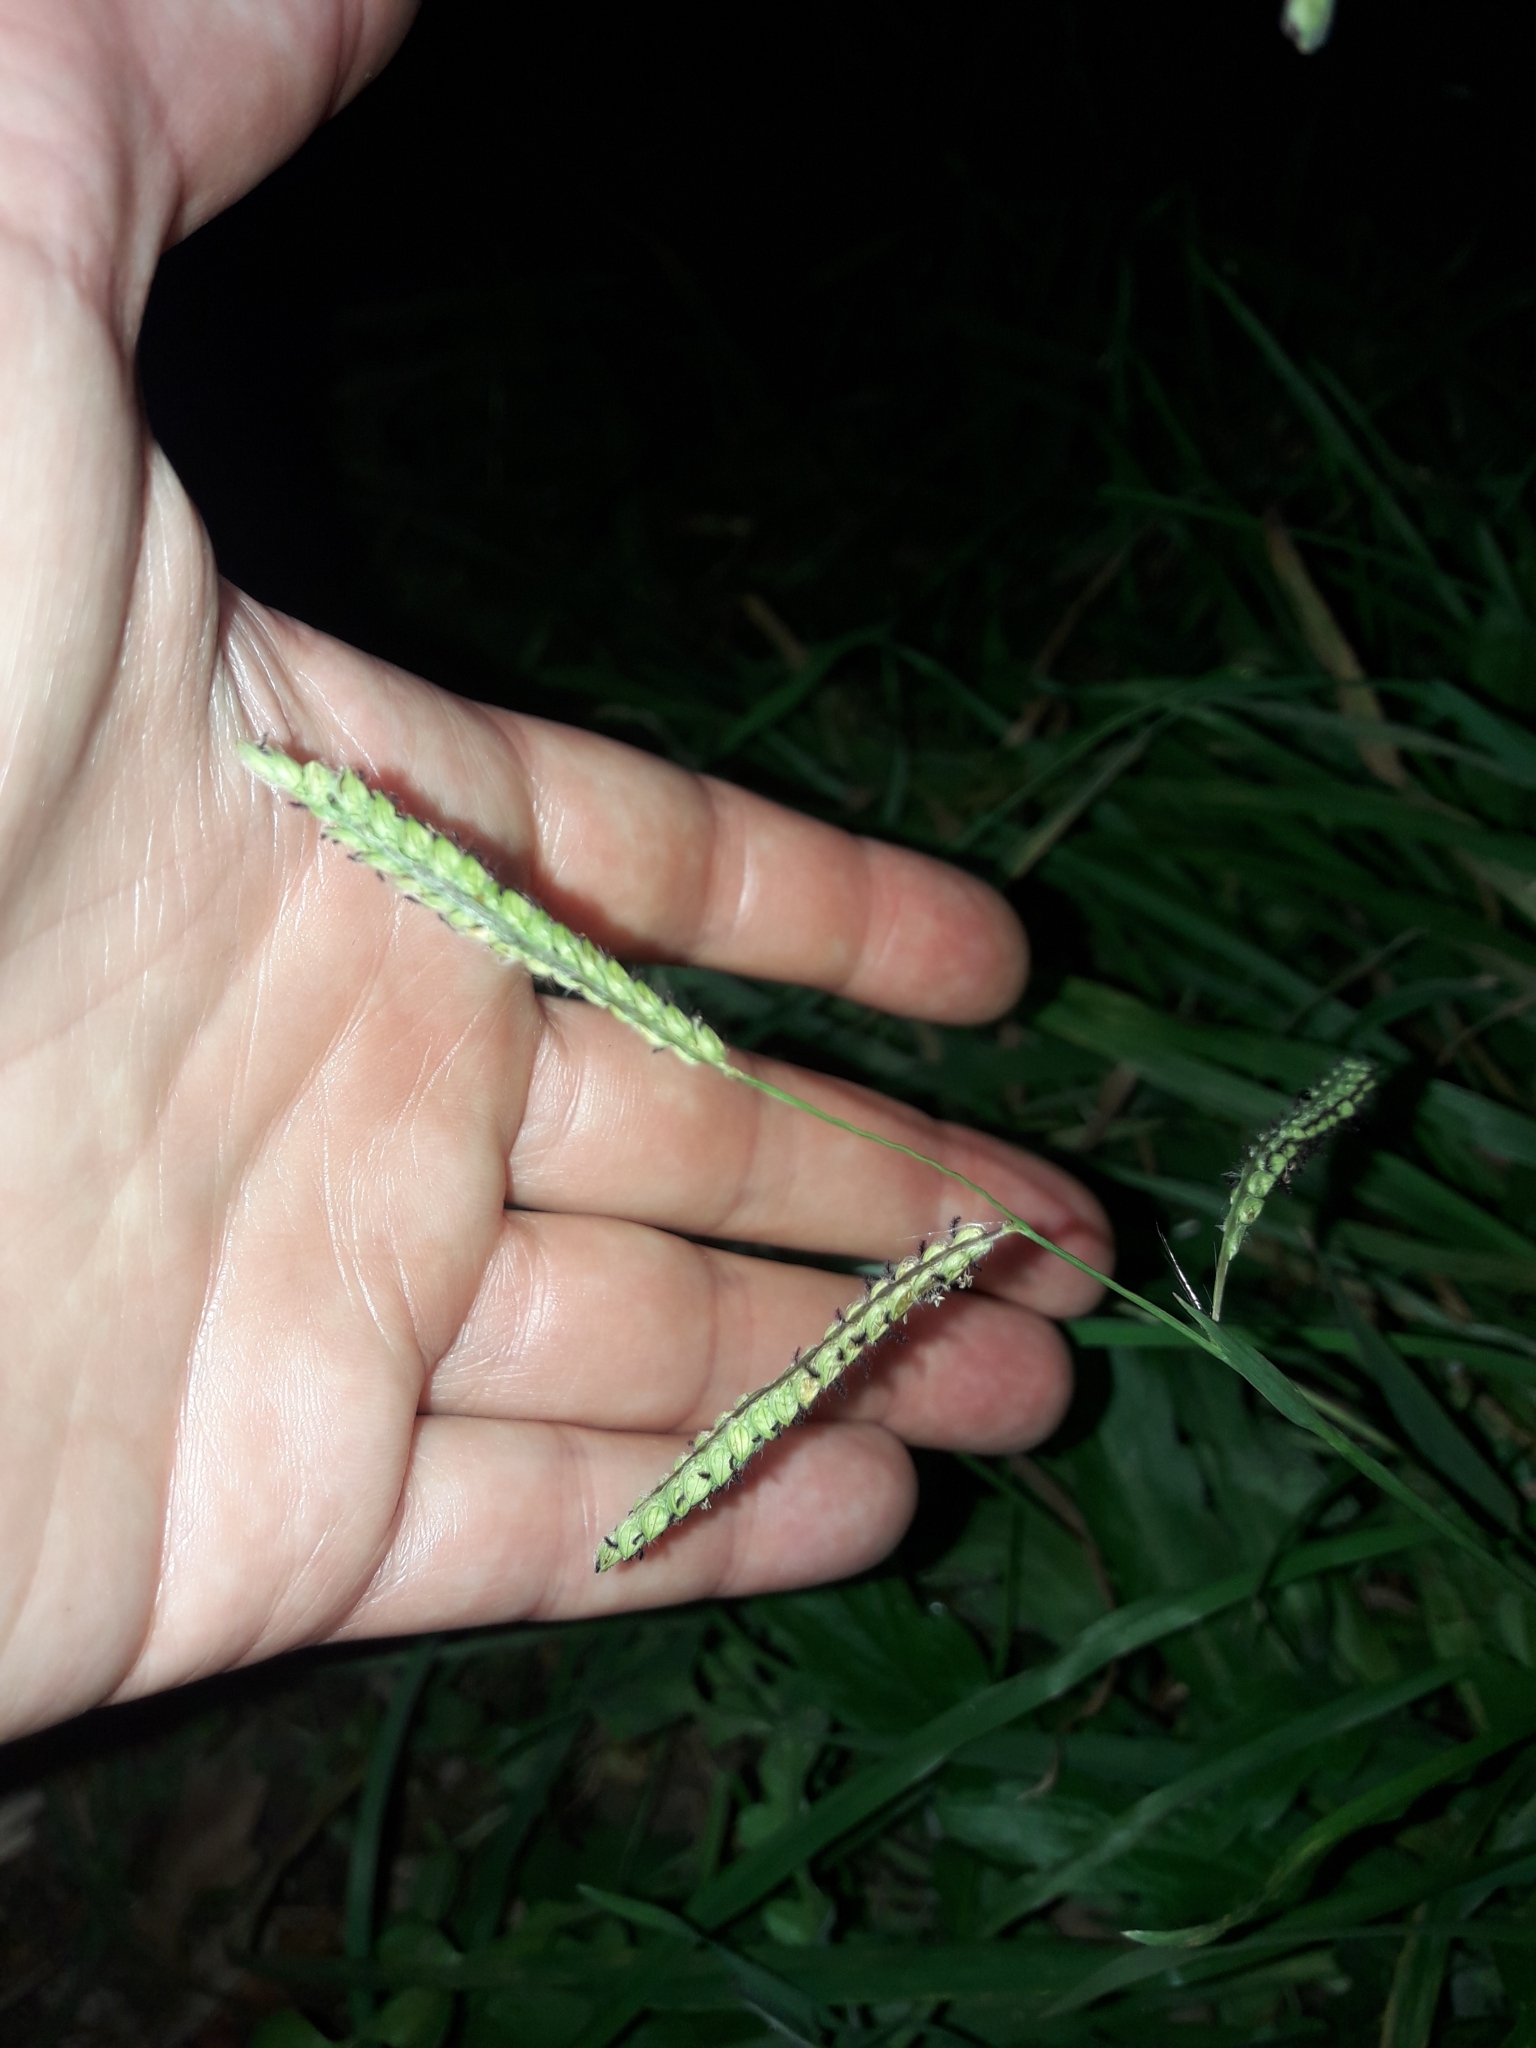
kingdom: Plantae
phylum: Tracheophyta
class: Liliopsida
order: Poales
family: Poaceae
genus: Paspalum
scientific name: Paspalum dilatatum
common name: Dallisgrass
